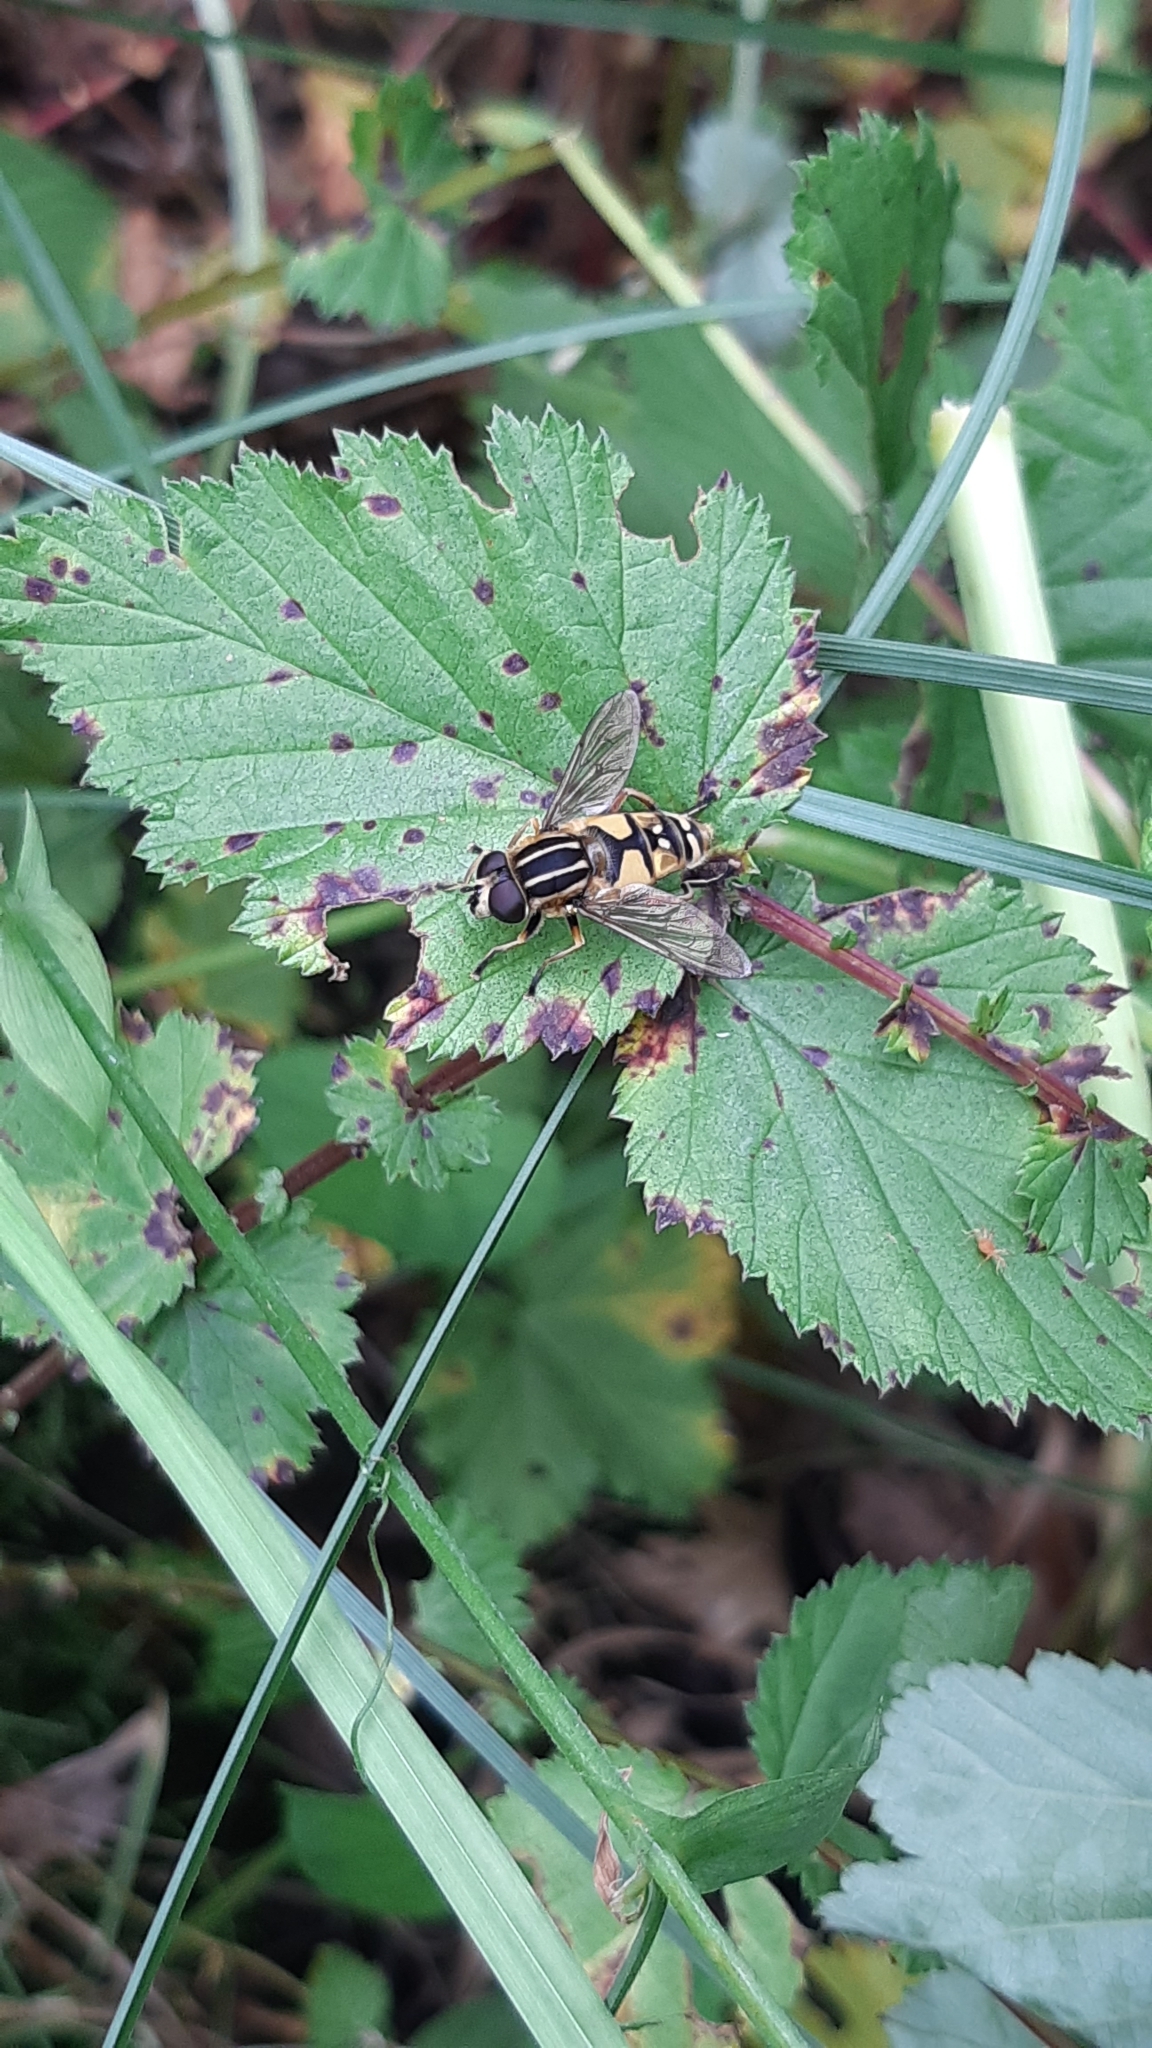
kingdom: Animalia
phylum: Arthropoda
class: Insecta
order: Diptera
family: Syrphidae
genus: Helophilus
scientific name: Helophilus pendulus
